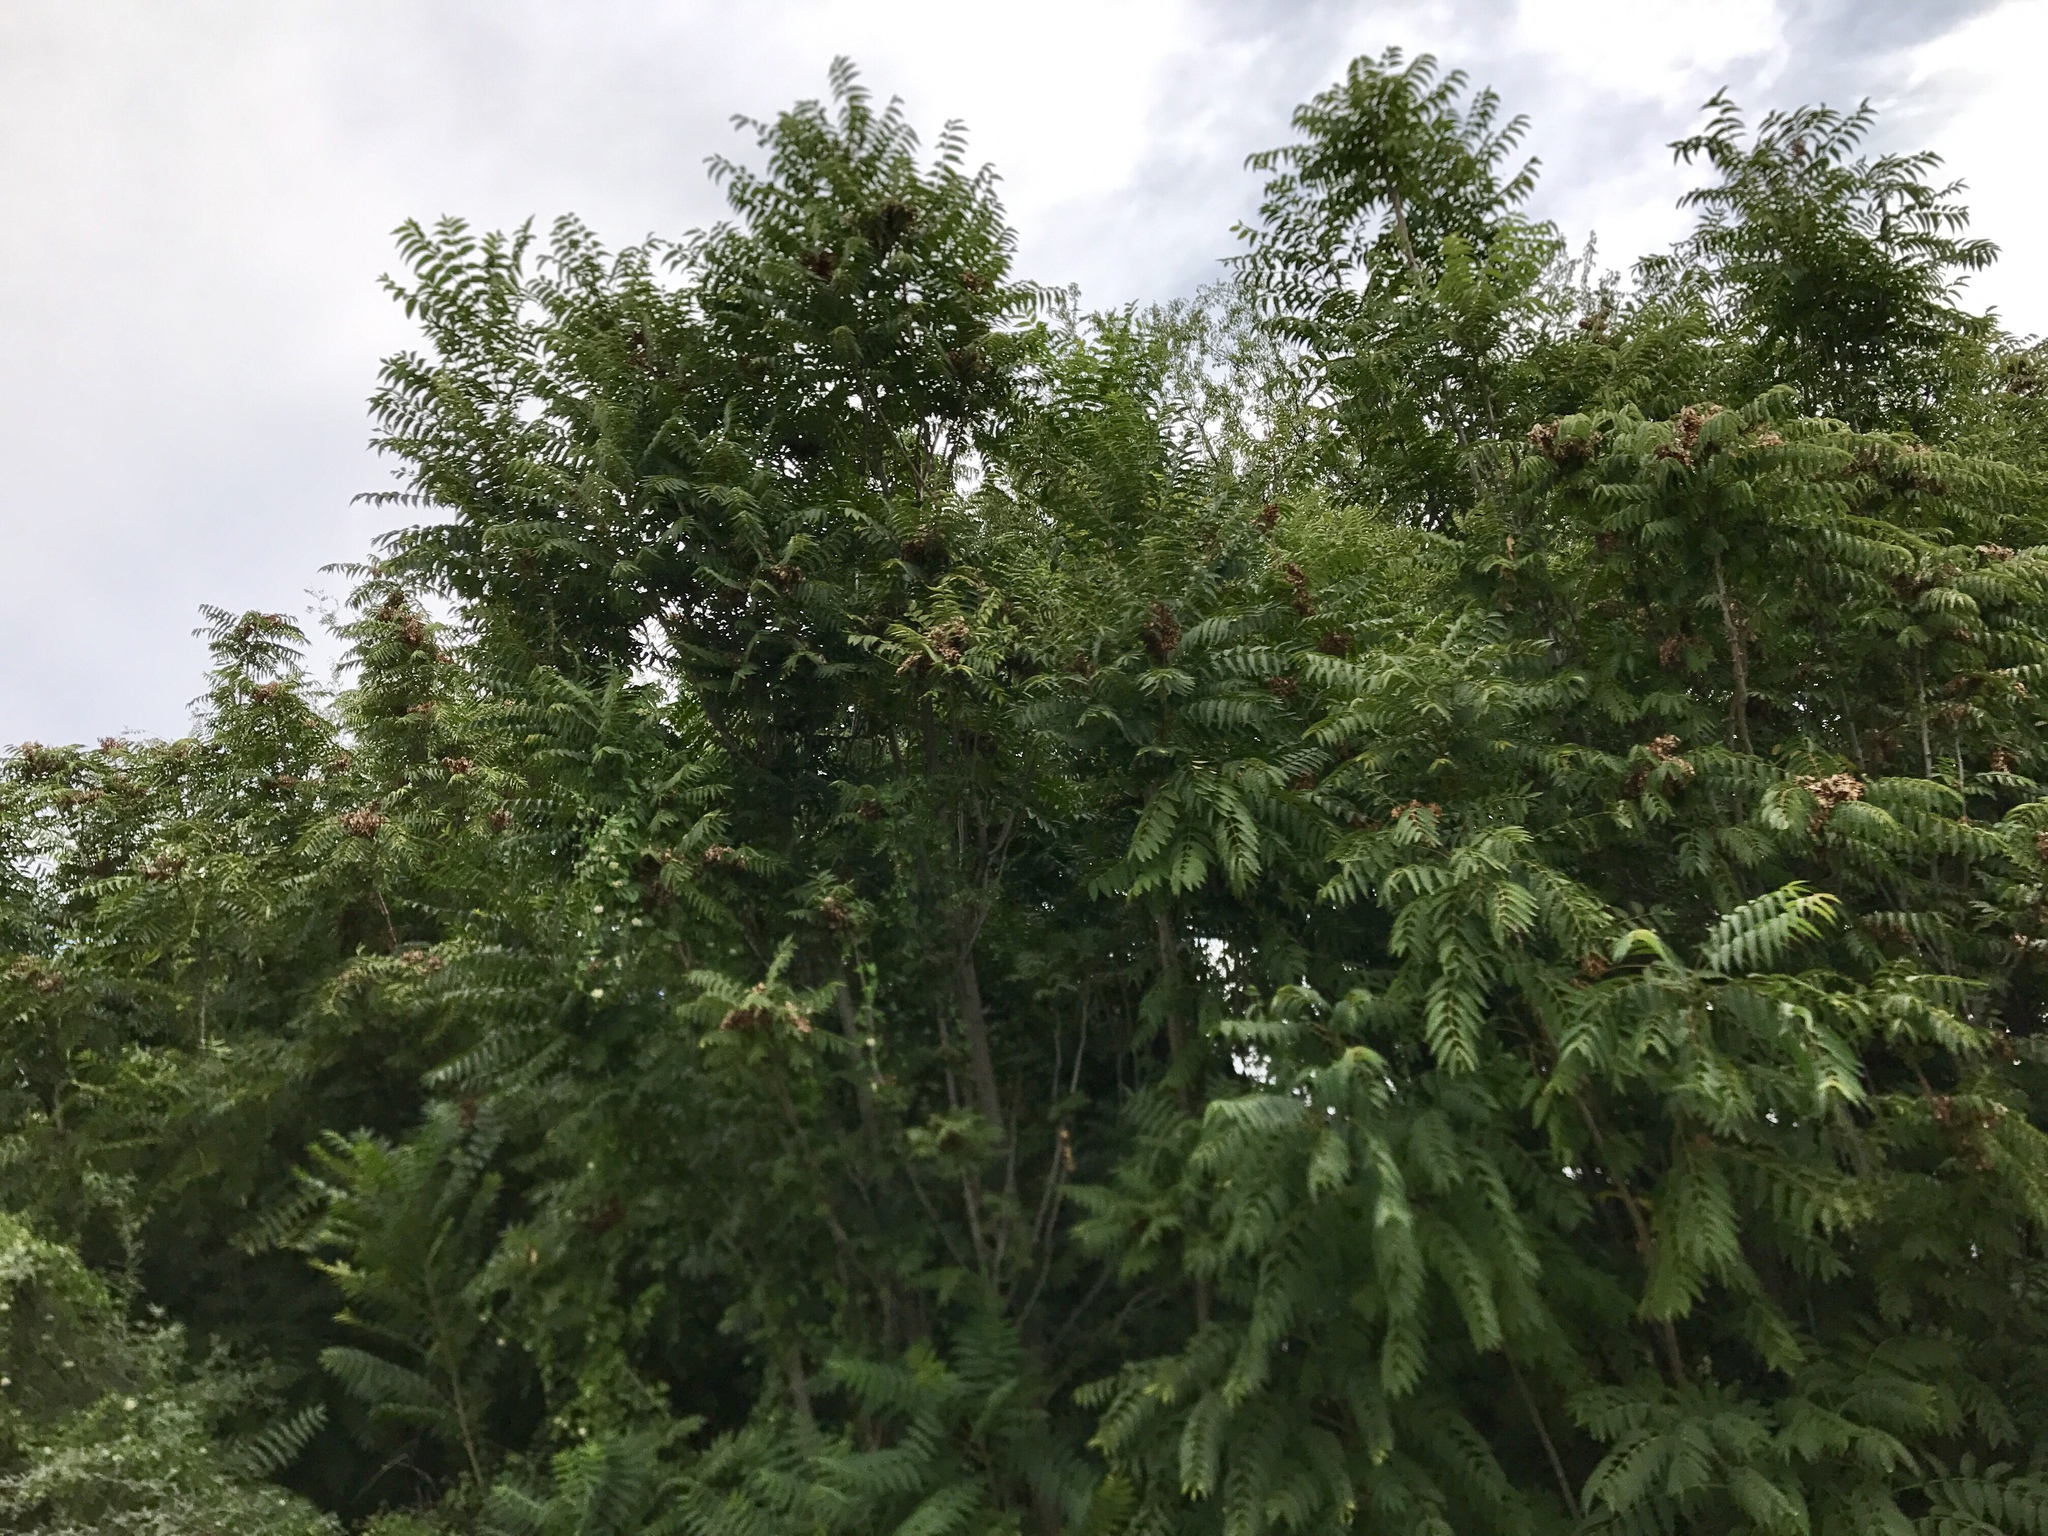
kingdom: Plantae
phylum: Tracheophyta
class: Magnoliopsida
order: Sapindales
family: Simaroubaceae
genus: Ailanthus
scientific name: Ailanthus altissima
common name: Tree-of-heaven
